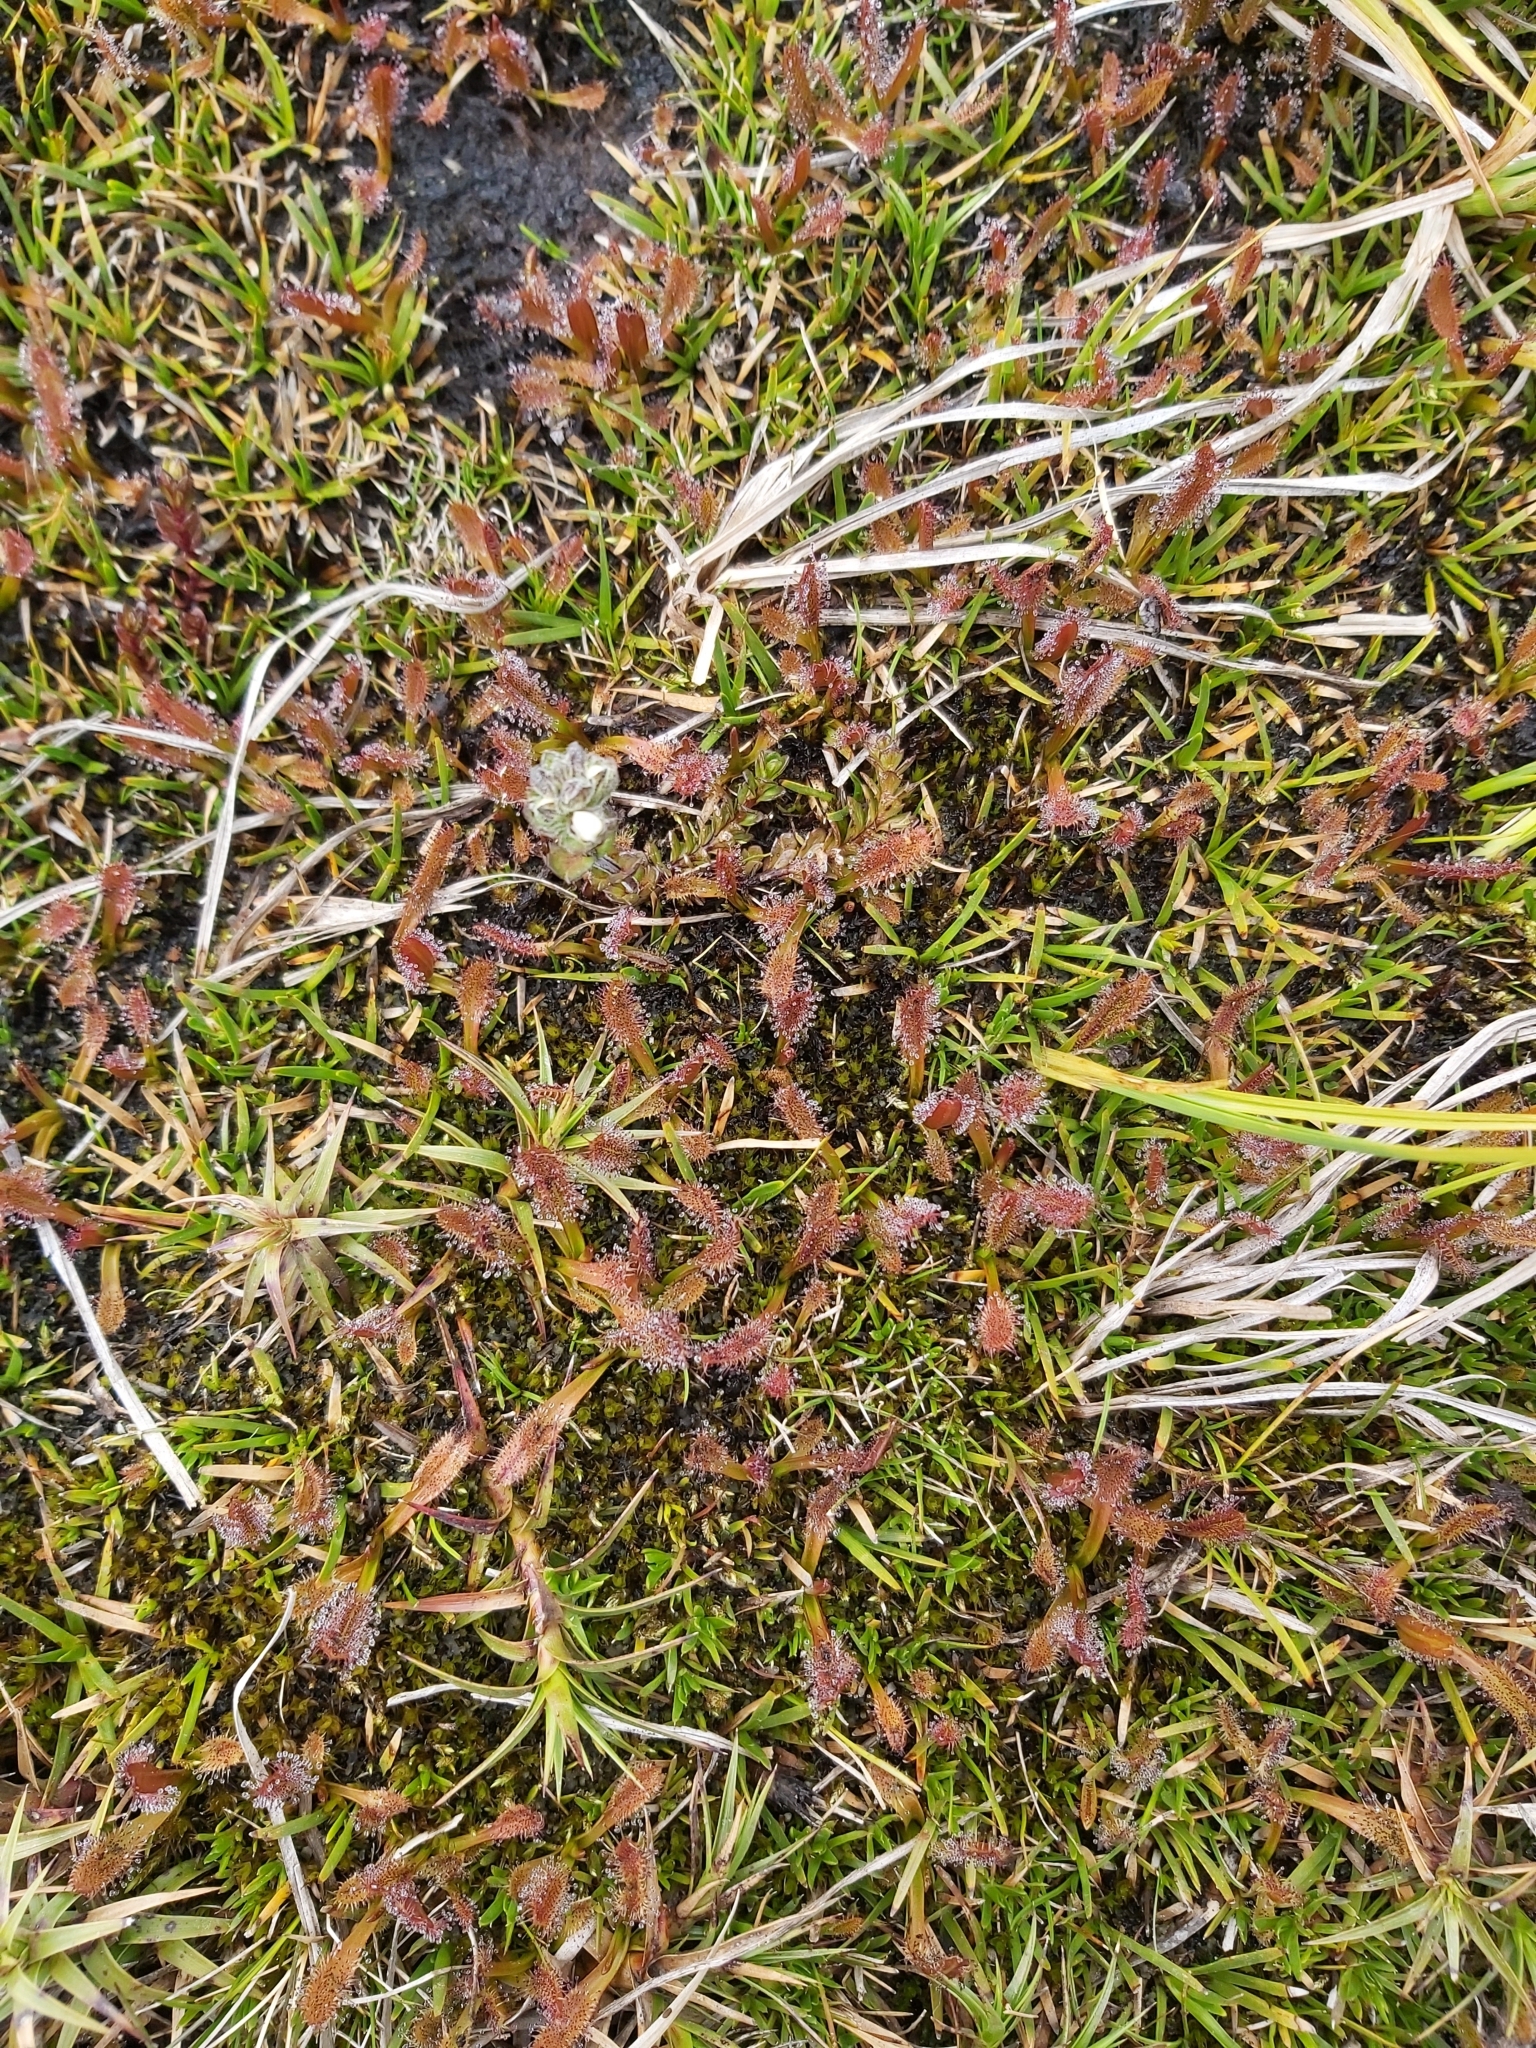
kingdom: Plantae
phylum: Tracheophyta
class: Magnoliopsida
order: Caryophyllales
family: Droseraceae
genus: Drosera
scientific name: Drosera arcturi
